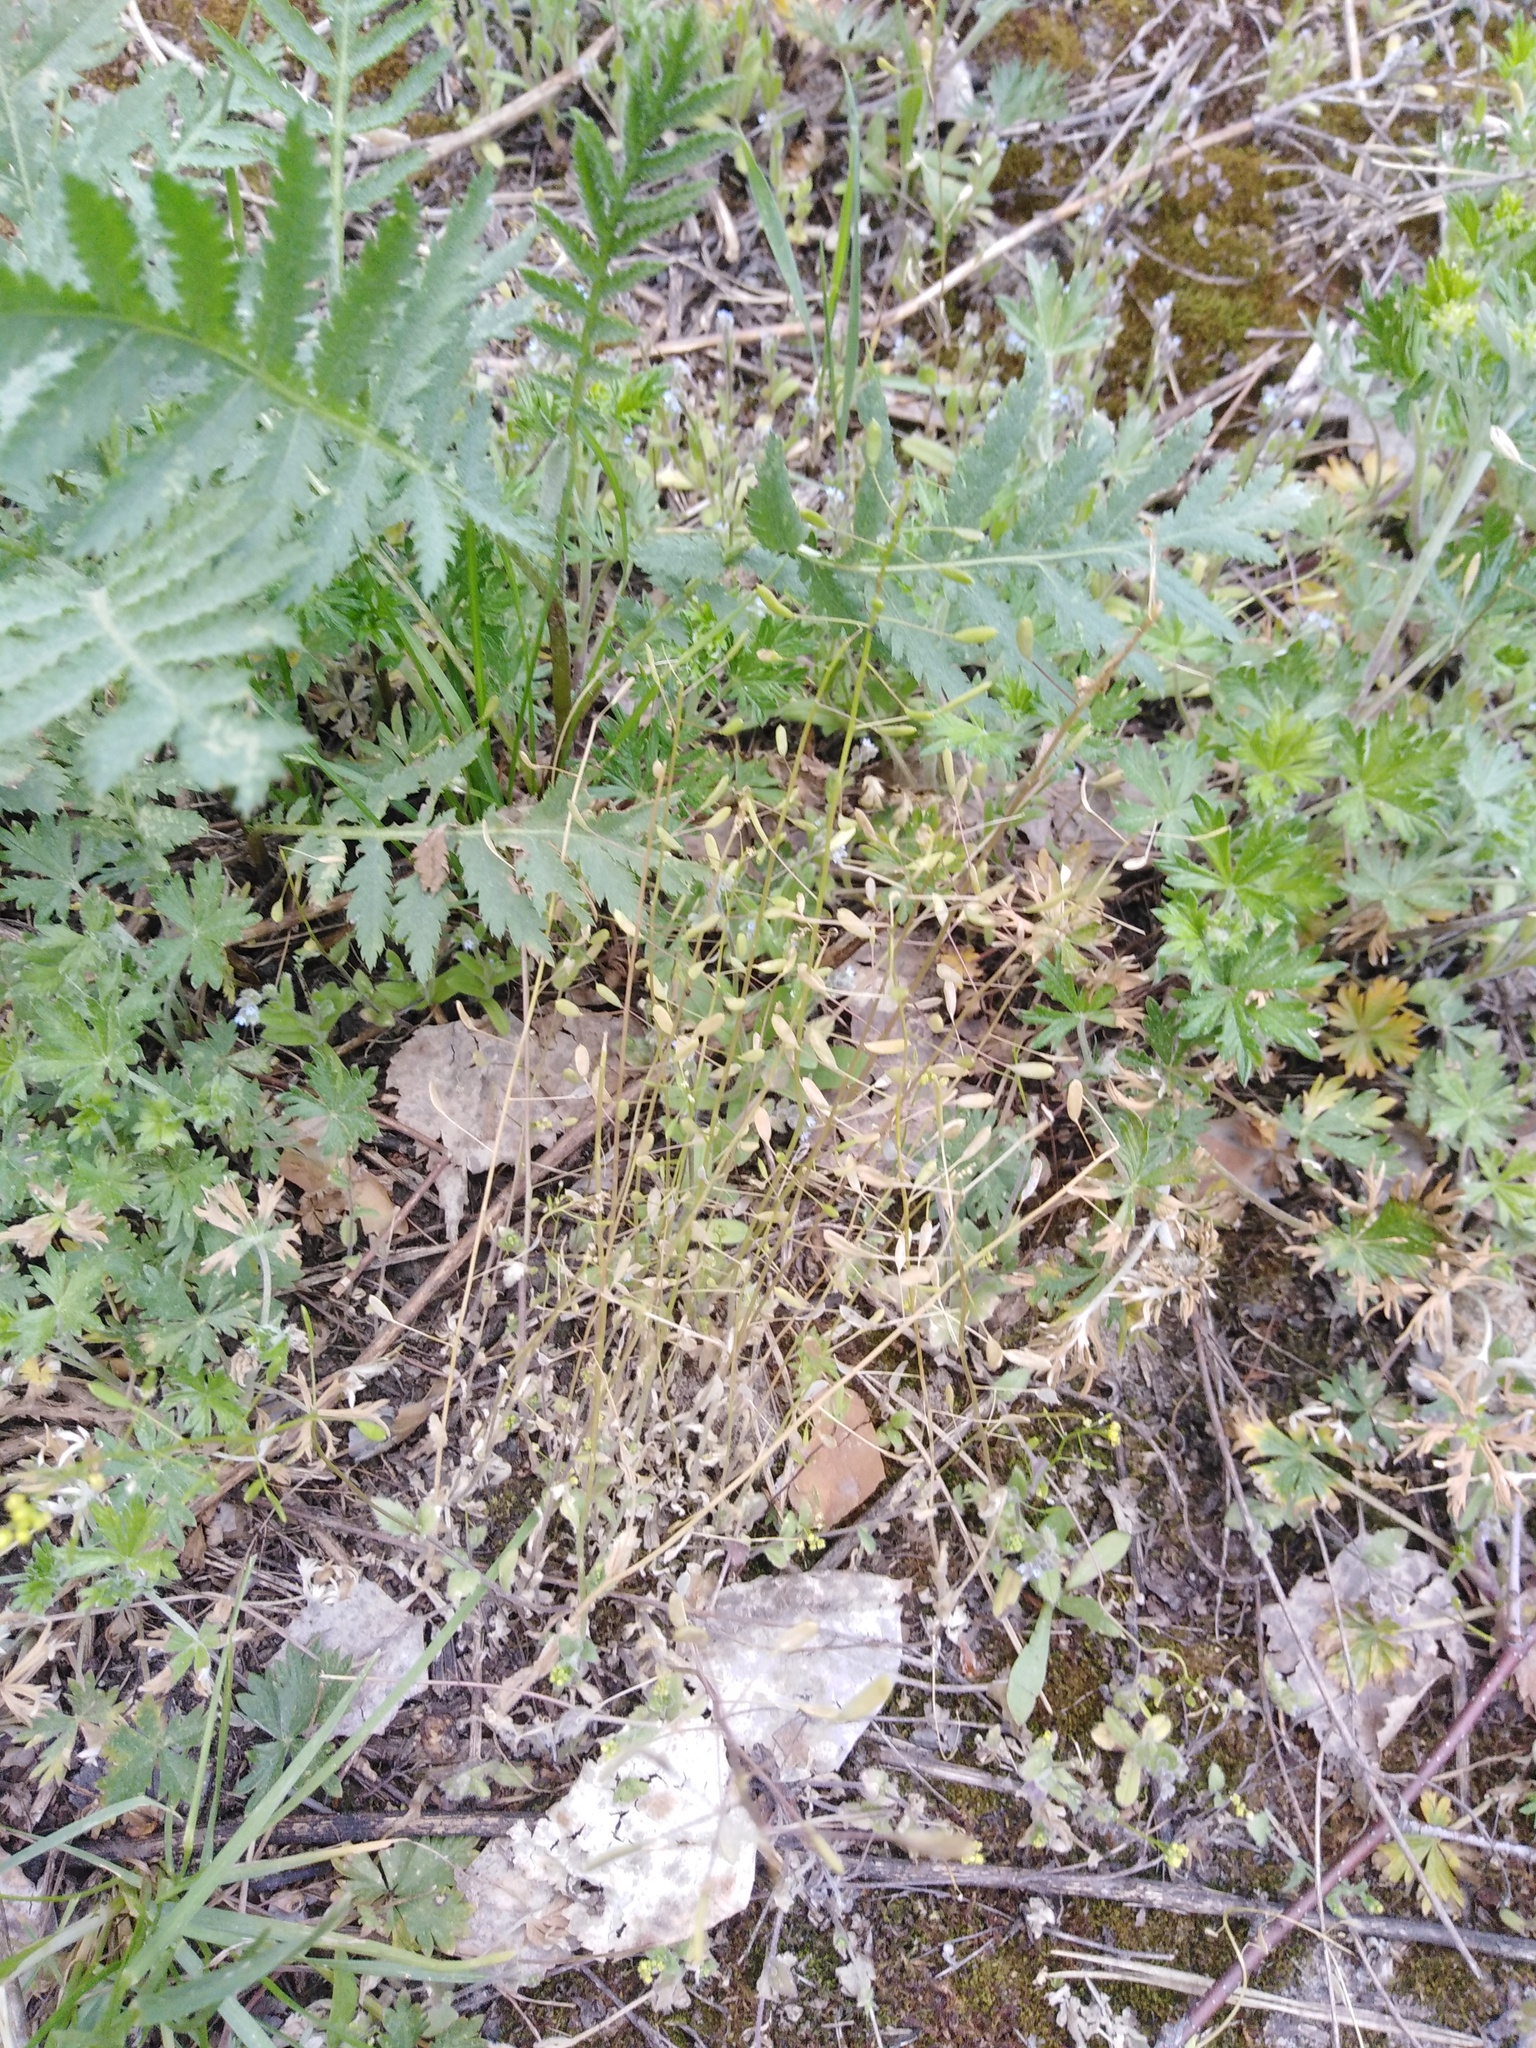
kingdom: Plantae
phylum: Tracheophyta
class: Magnoliopsida
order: Brassicales
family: Brassicaceae
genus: Draba
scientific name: Draba nemorosa
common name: Wood whitlow-grass
